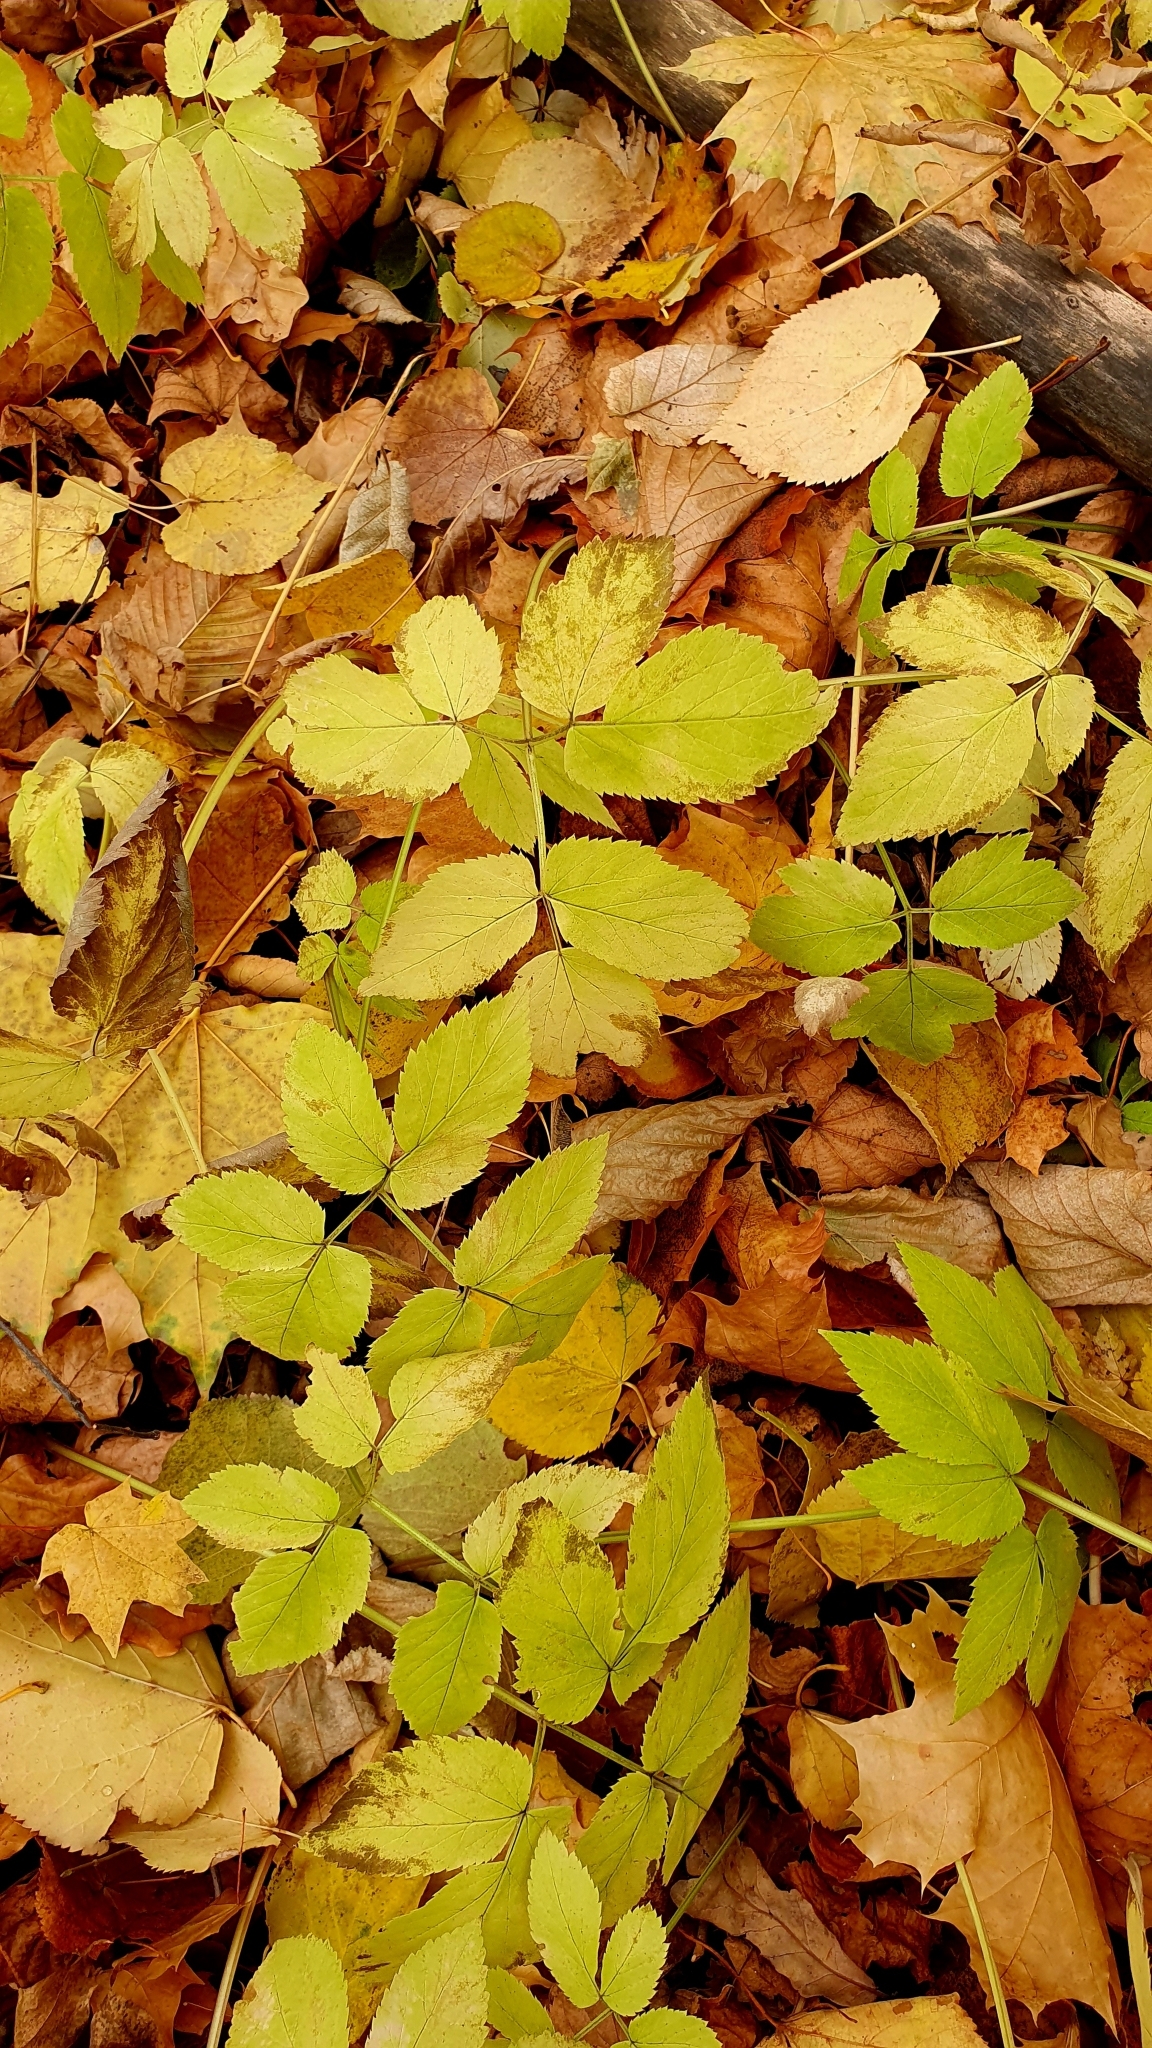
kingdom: Plantae
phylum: Tracheophyta
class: Magnoliopsida
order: Apiales
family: Apiaceae
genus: Aegopodium
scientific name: Aegopodium podagraria
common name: Ground-elder
